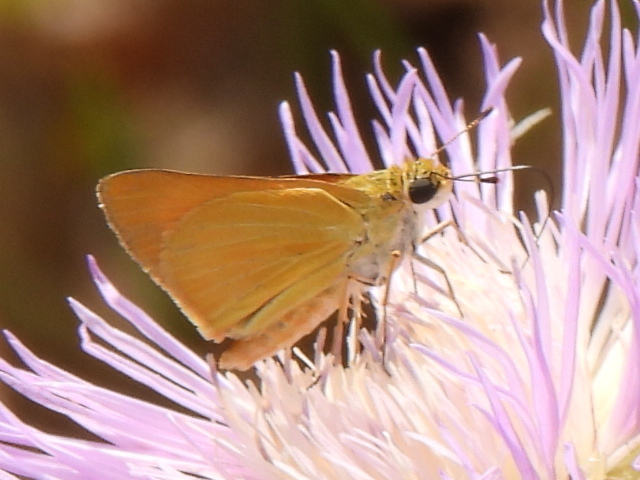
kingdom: Animalia
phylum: Arthropoda
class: Insecta
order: Lepidoptera
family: Hesperiidae
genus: Atrytone
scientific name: Atrytone delaware
